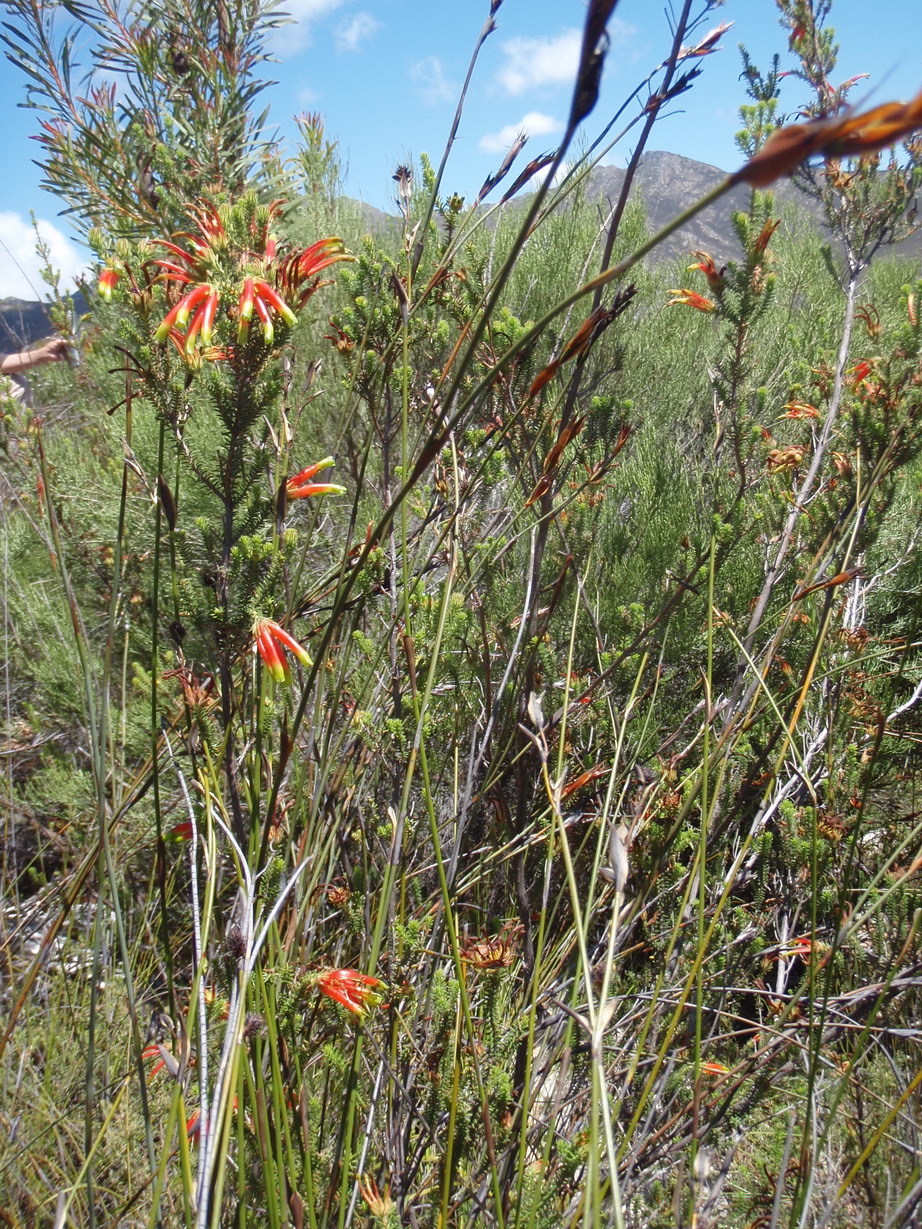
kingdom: Plantae
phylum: Tracheophyta
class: Magnoliopsida
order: Ericales
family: Ericaceae
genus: Erica
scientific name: Erica croceovirens
